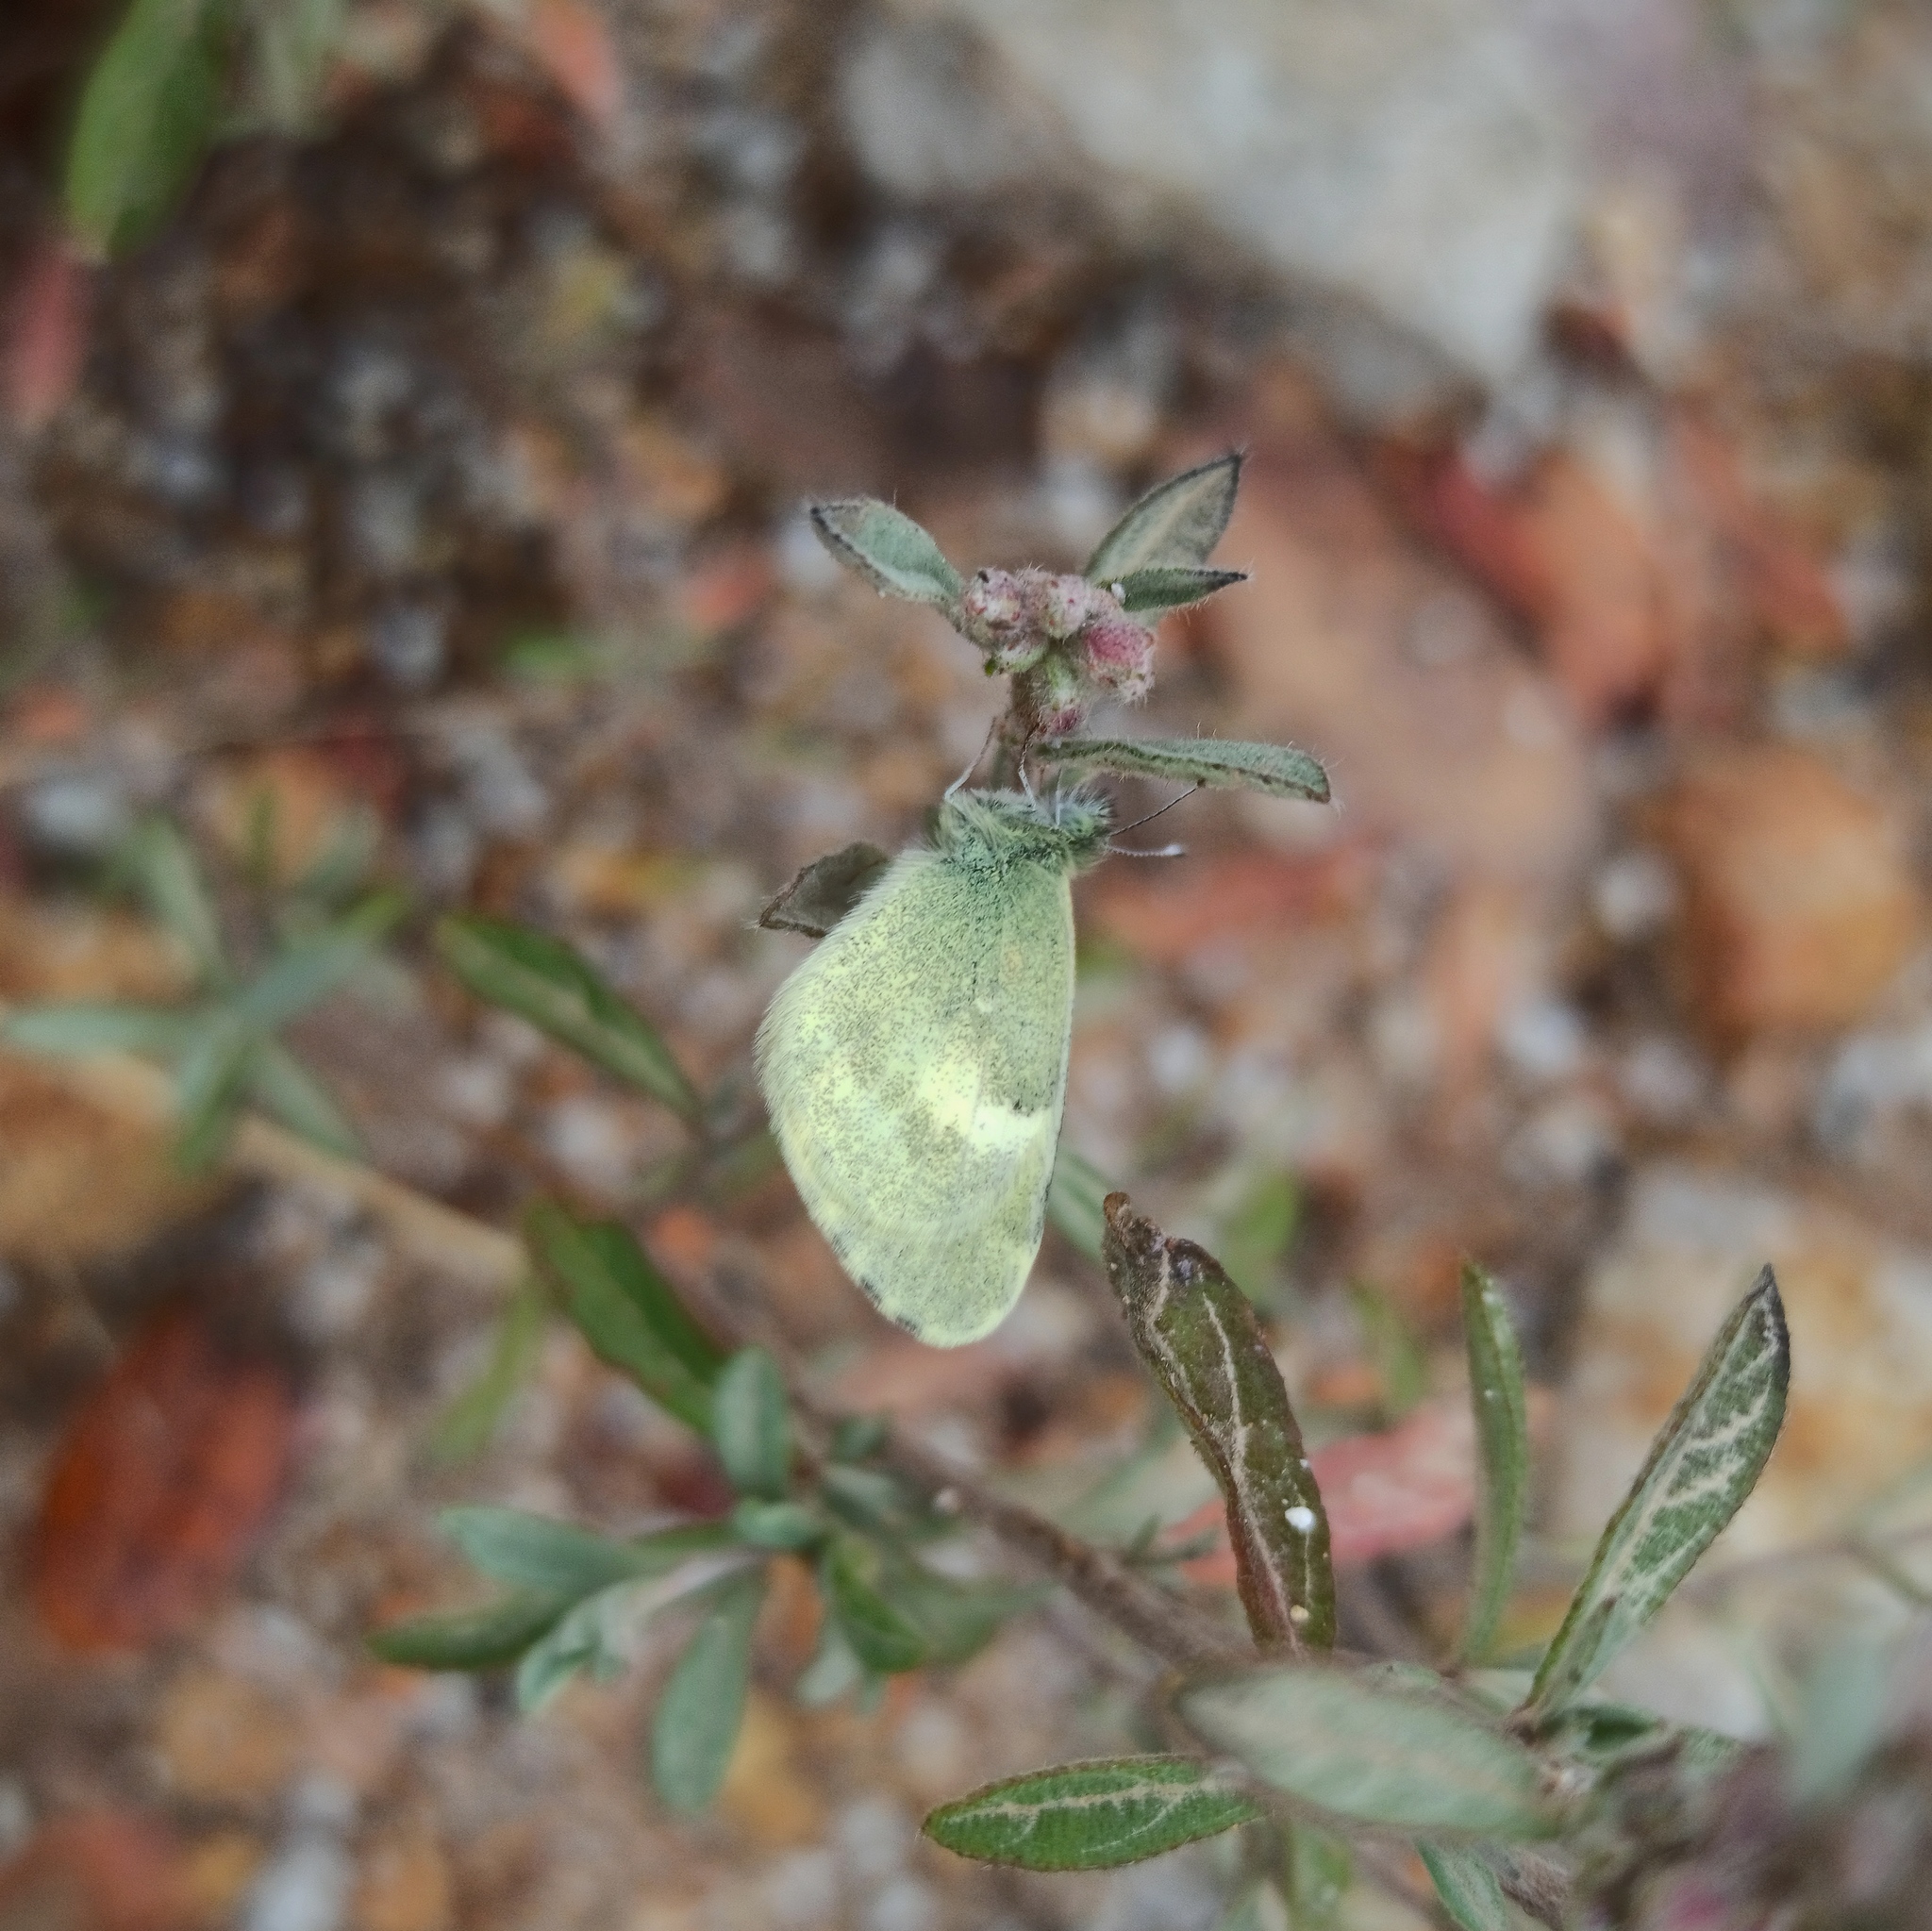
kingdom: Animalia
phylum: Arthropoda
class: Insecta
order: Lepidoptera
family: Pieridae
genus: Nathalis
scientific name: Nathalis iole
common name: Dainty sulphur
